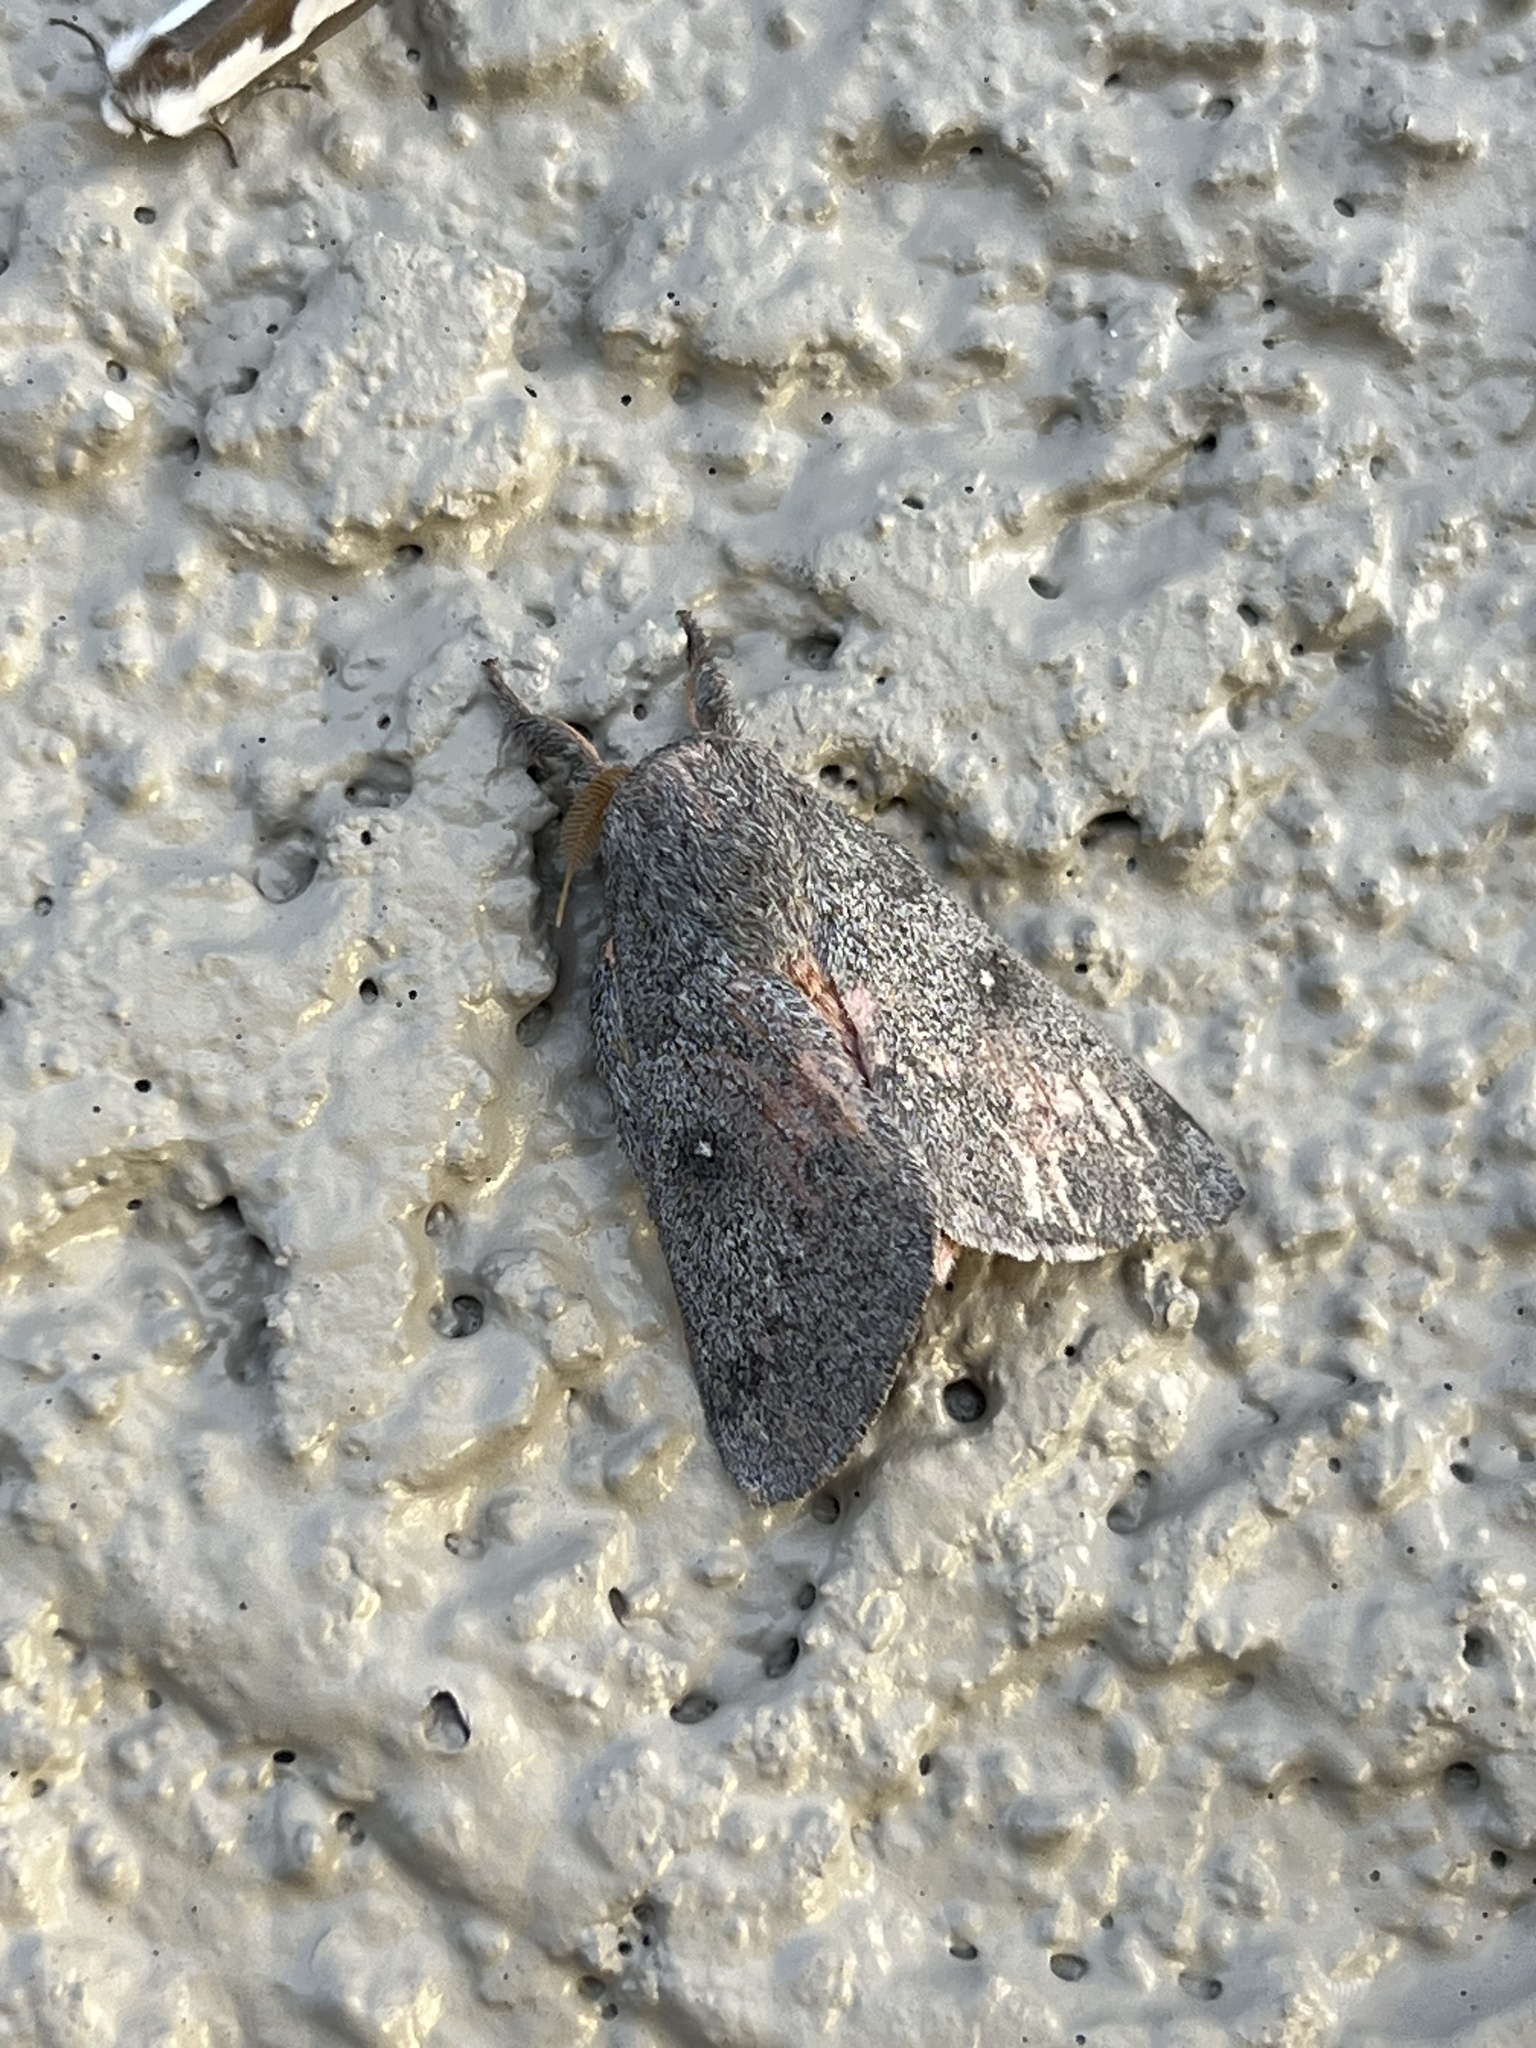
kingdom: Animalia
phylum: Arthropoda
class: Insecta
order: Lepidoptera
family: Saturniidae
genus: Syssphinx
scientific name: Syssphinx hubbardi
